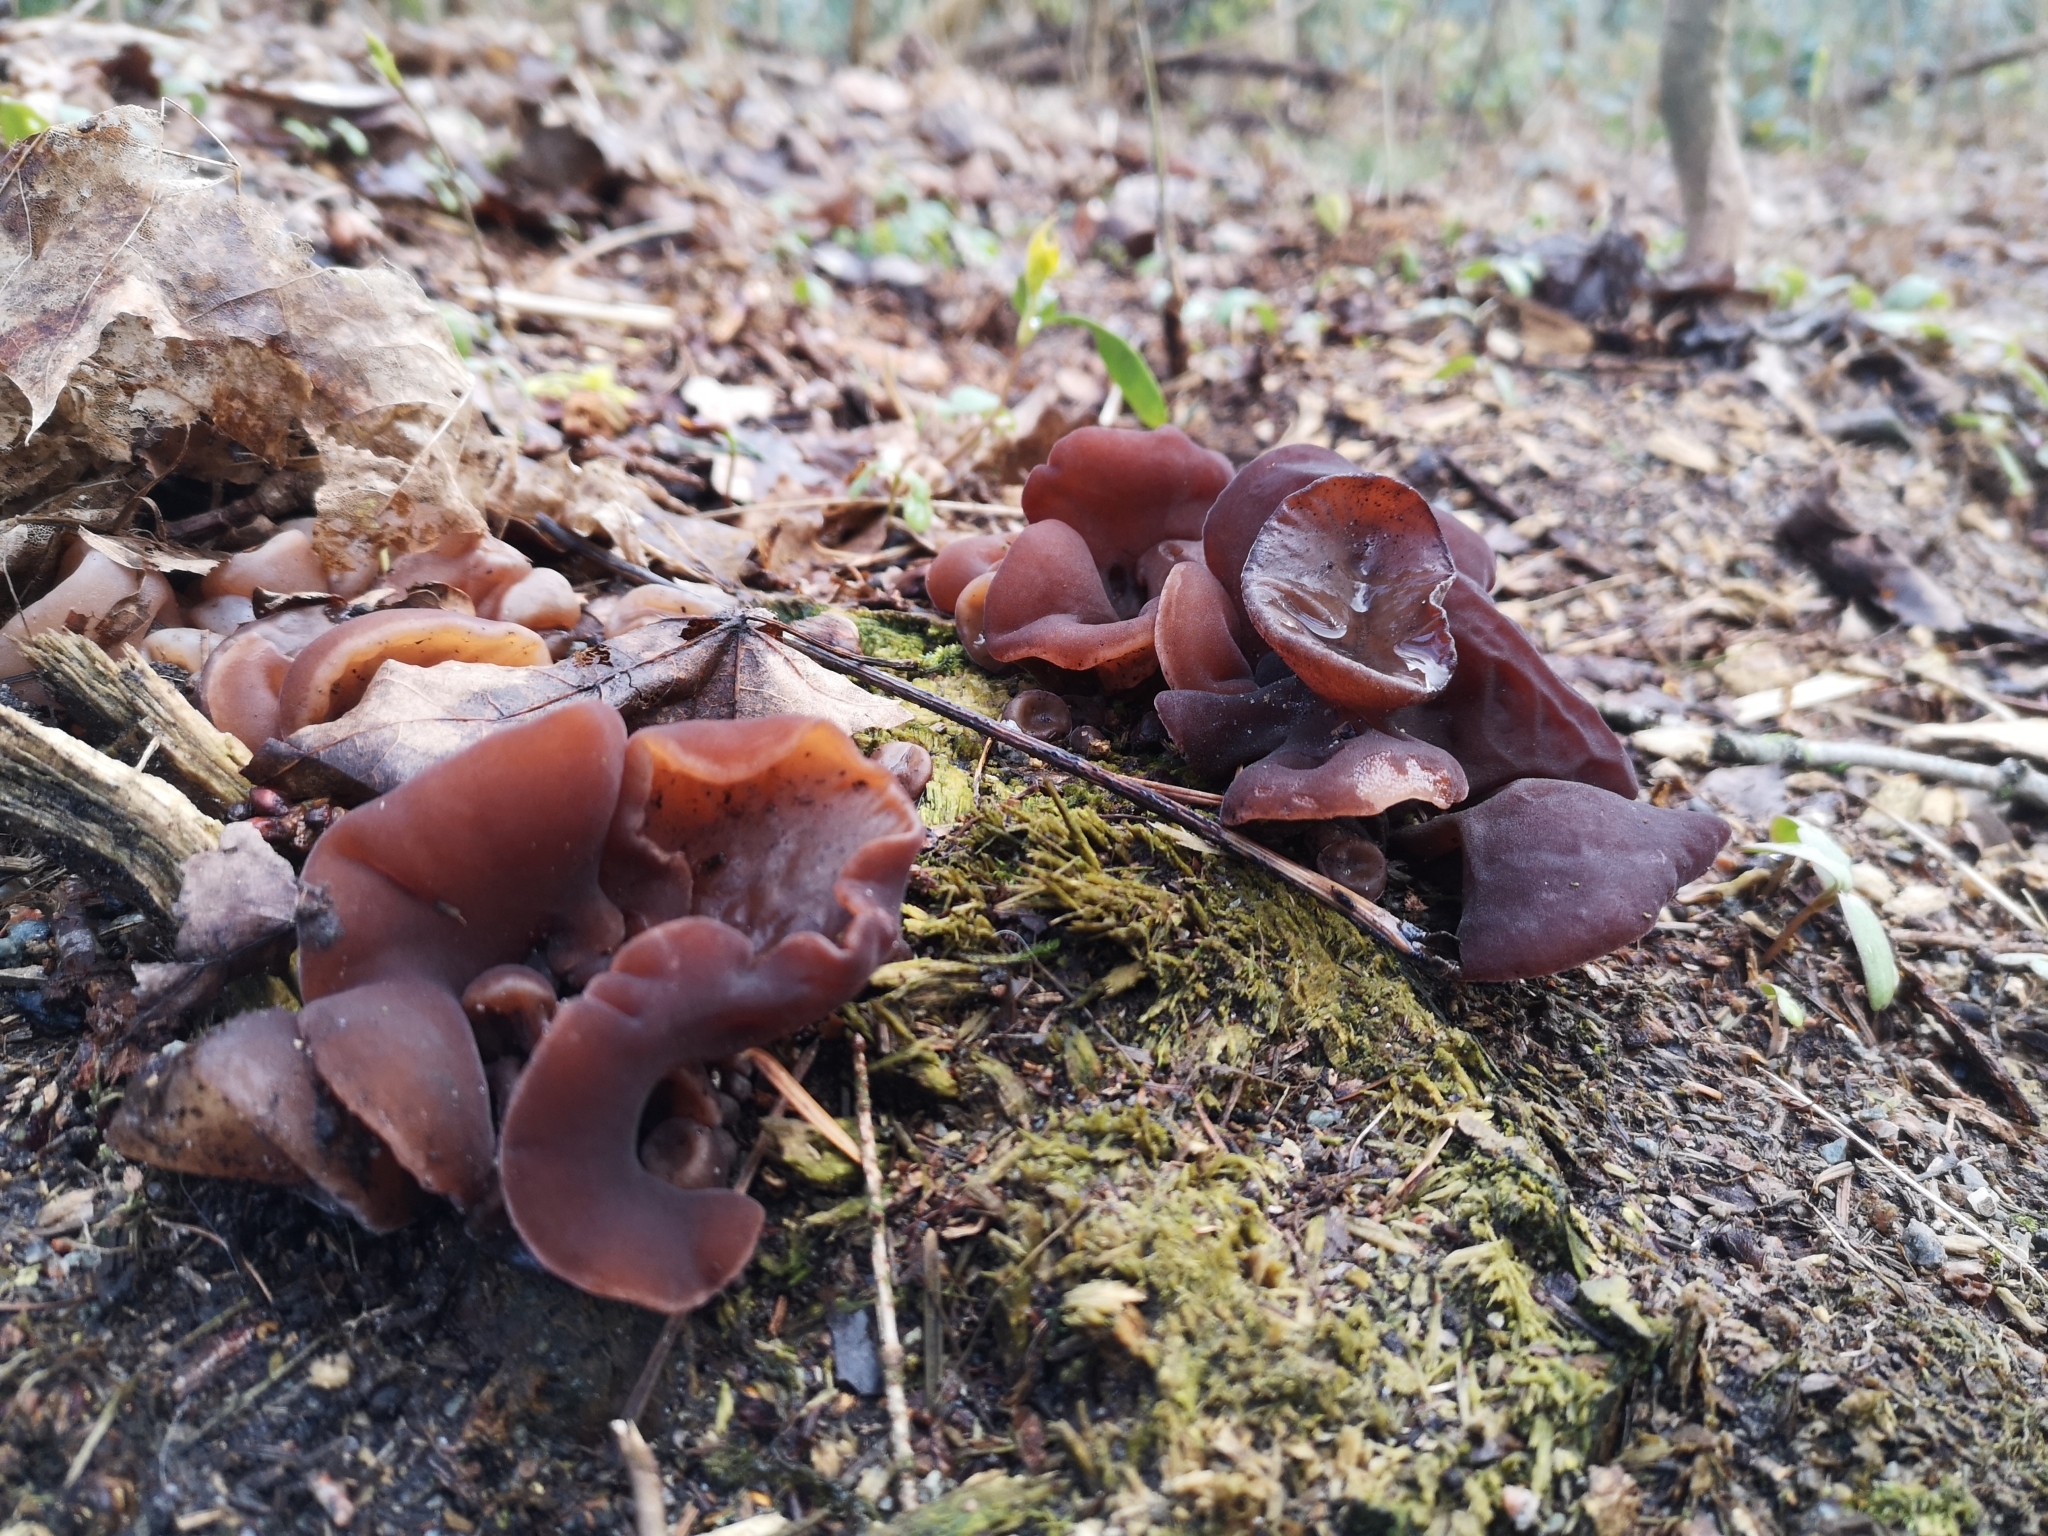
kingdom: Fungi
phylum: Basidiomycota
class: Agaricomycetes
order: Auriculariales
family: Auriculariaceae
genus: Auricularia
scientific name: Auricularia auricula-judae
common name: Jelly ear
